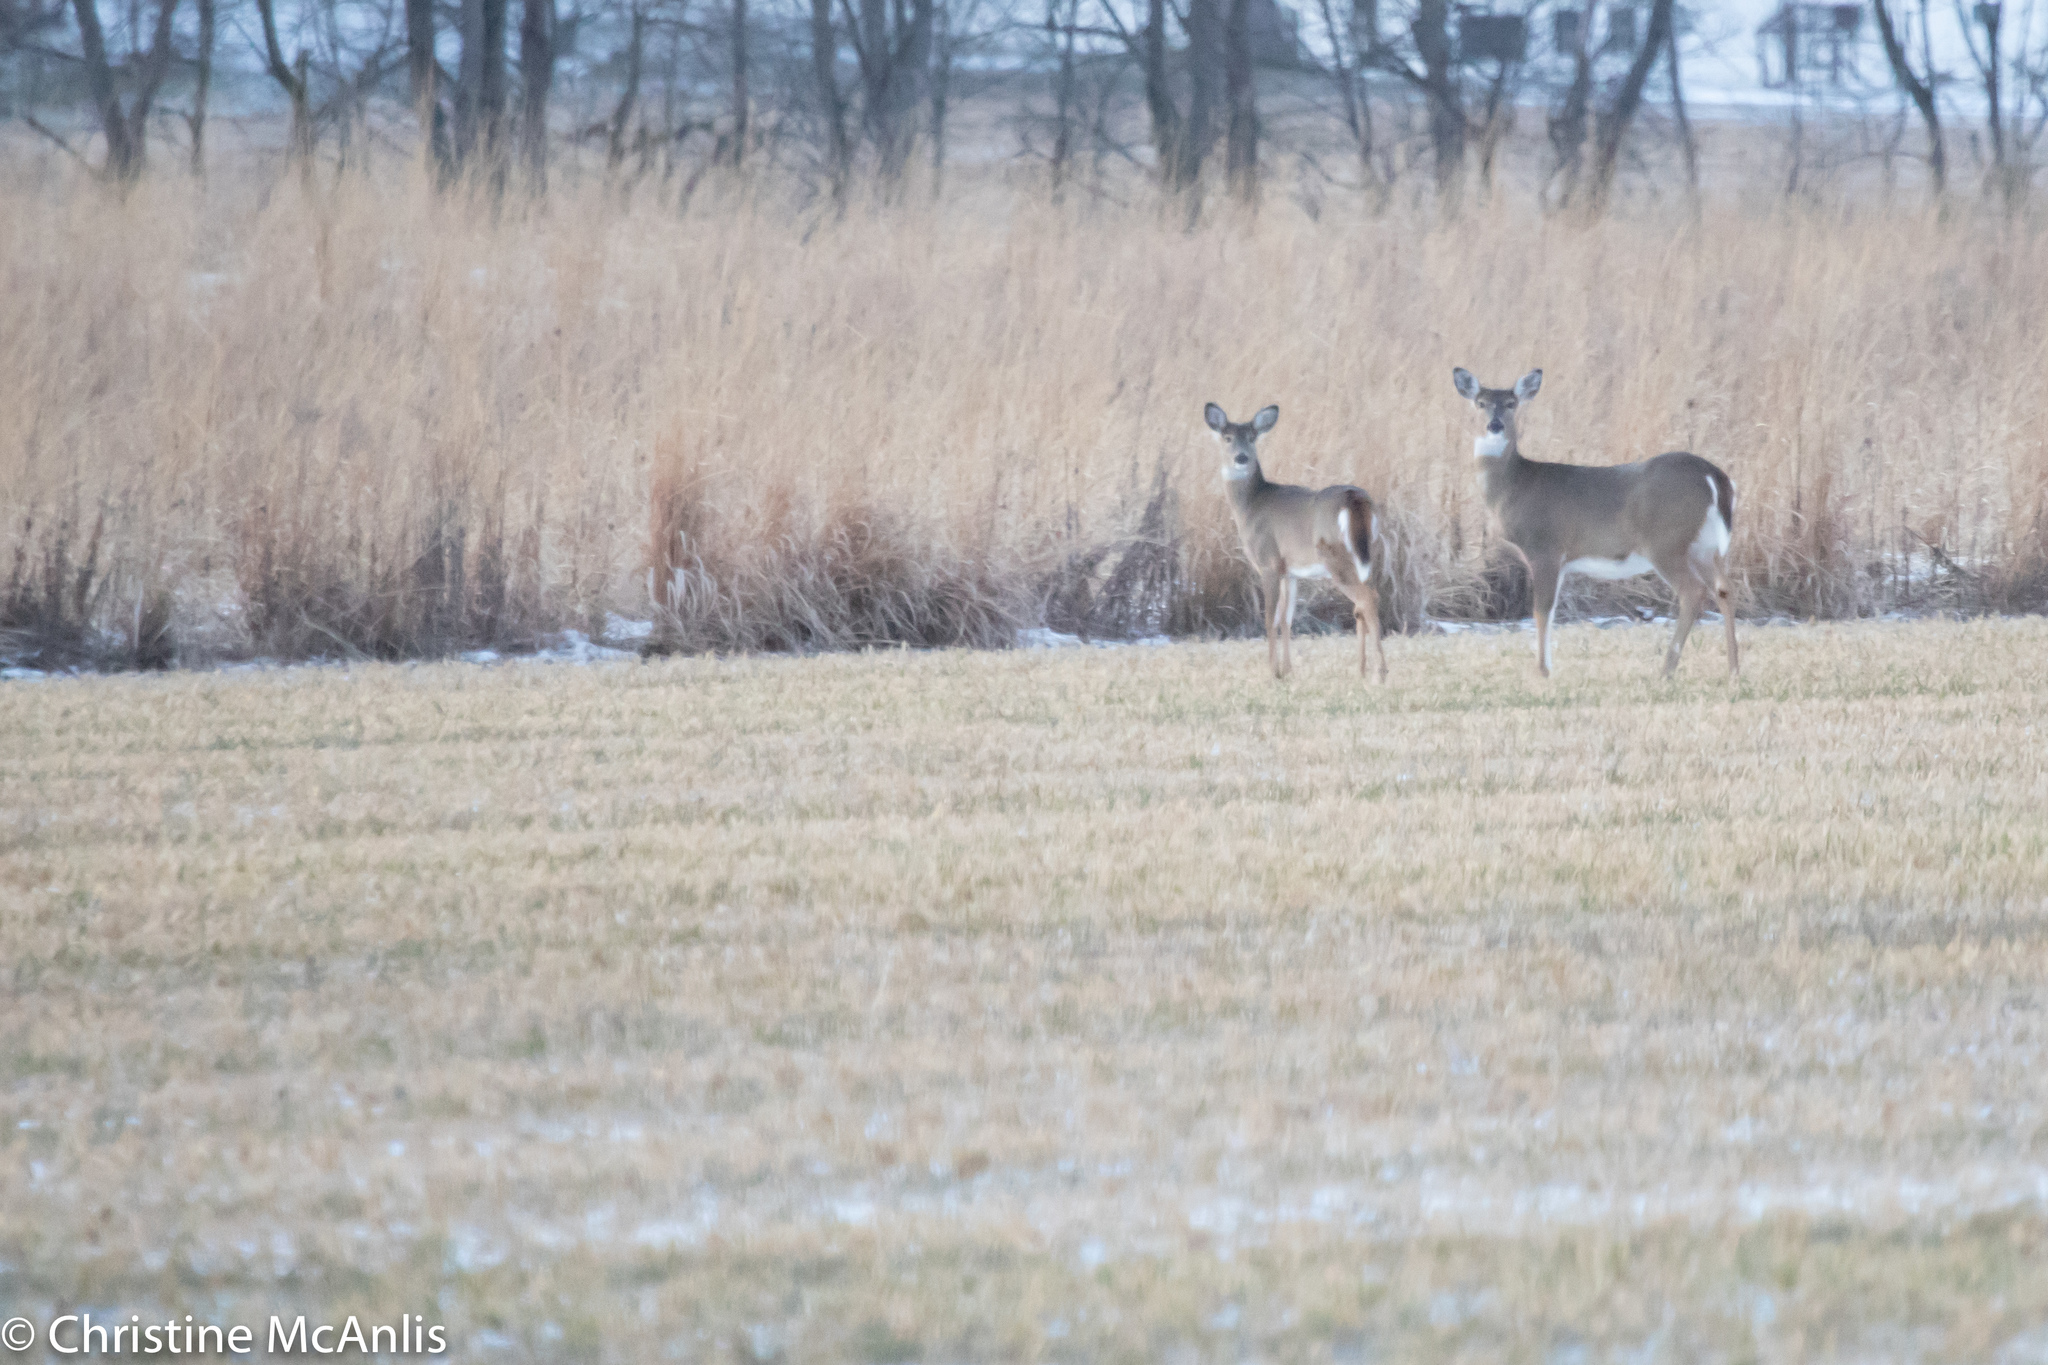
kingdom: Animalia
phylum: Chordata
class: Mammalia
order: Artiodactyla
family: Cervidae
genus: Odocoileus
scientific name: Odocoileus virginianus
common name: White-tailed deer
